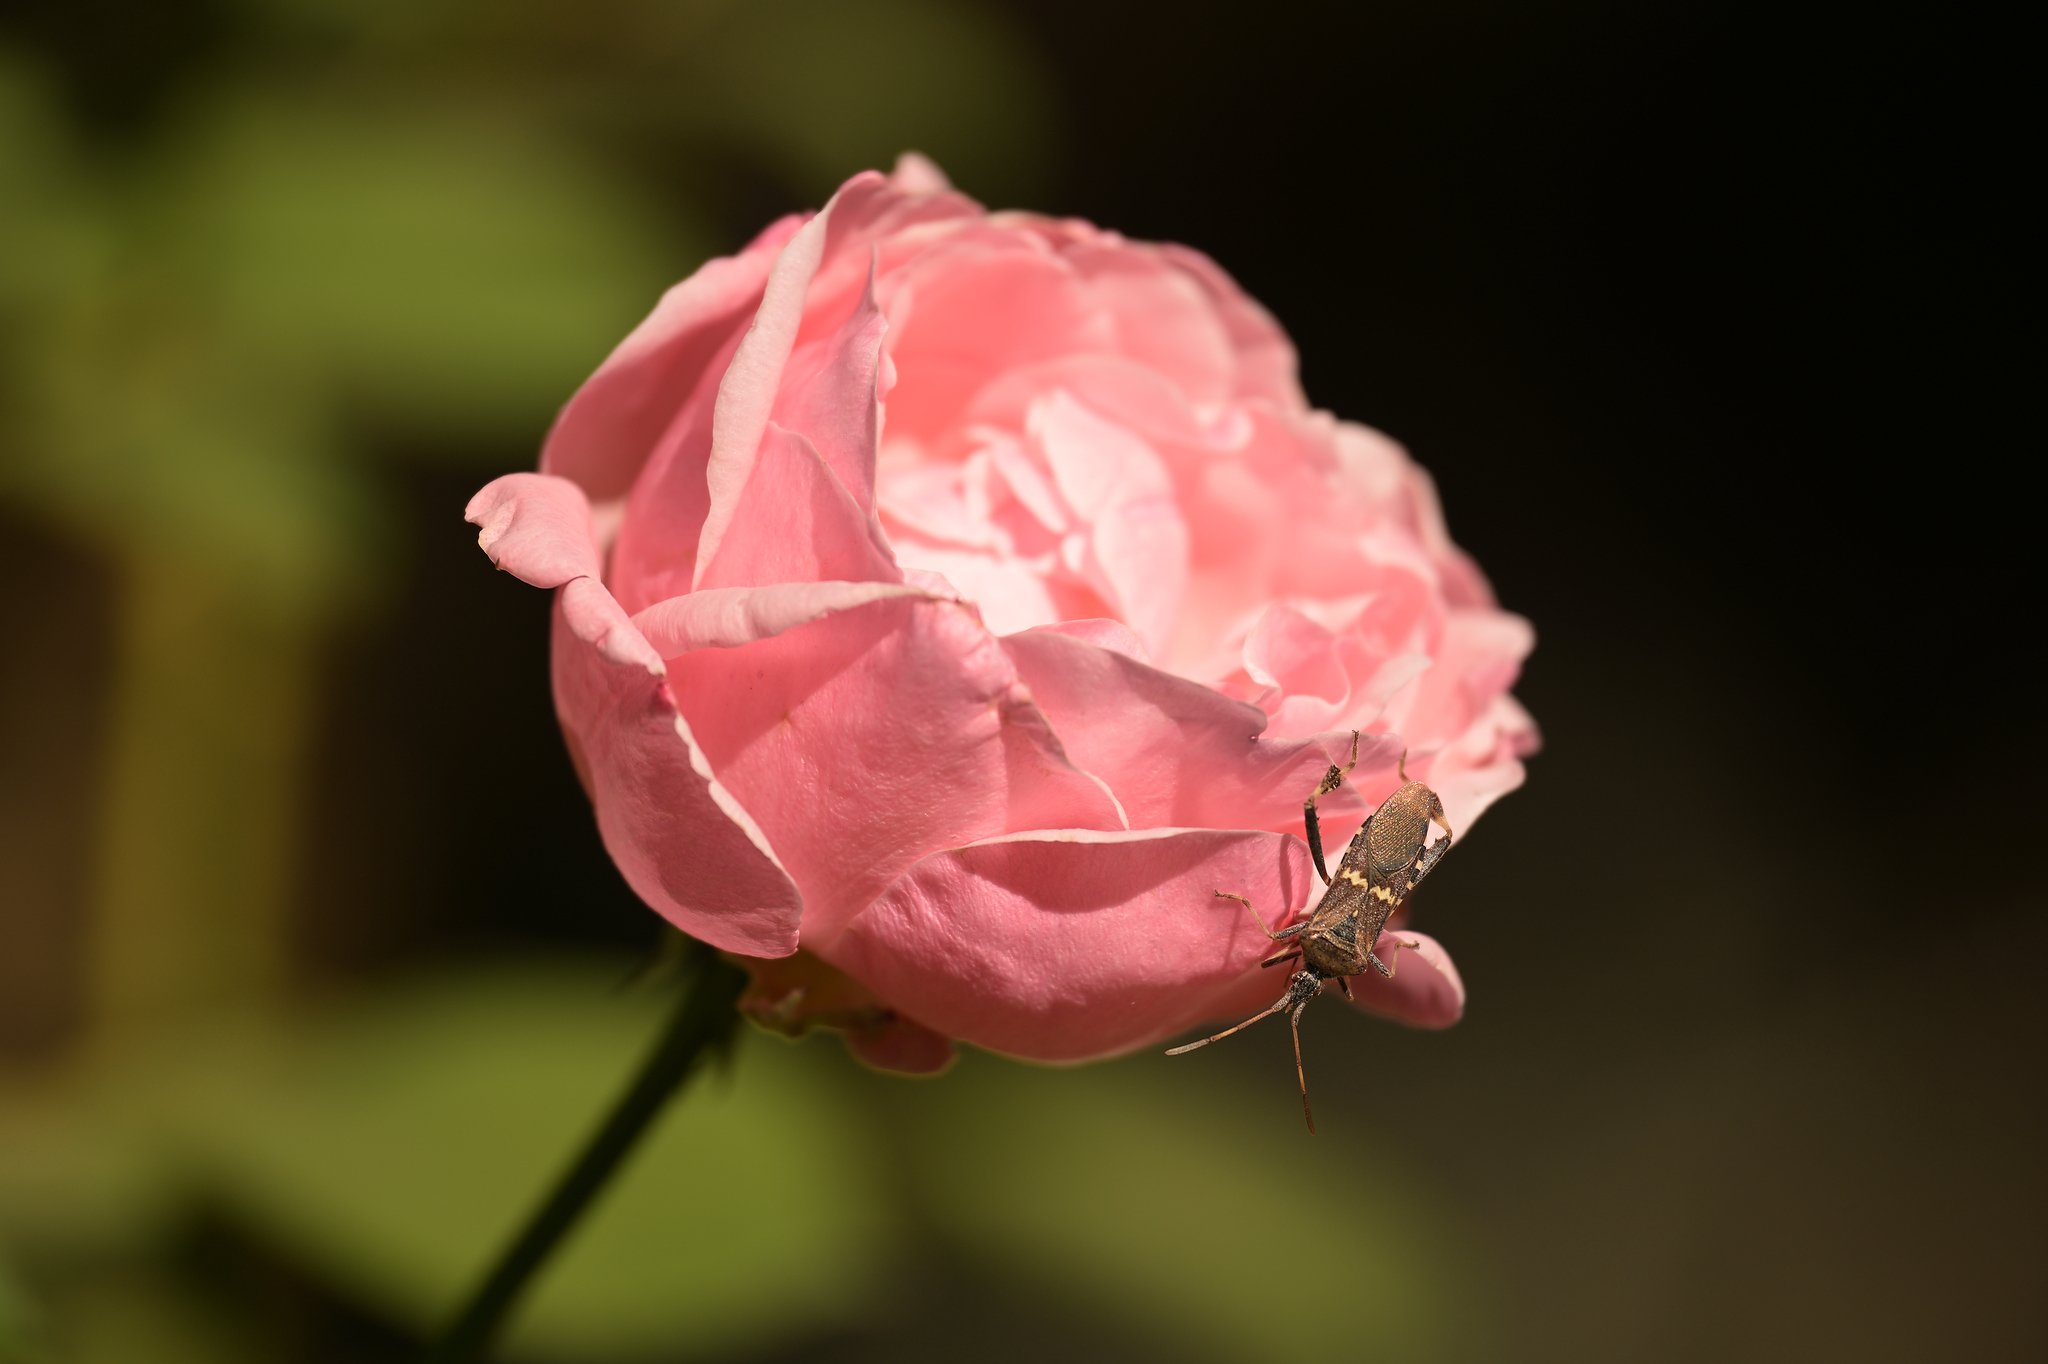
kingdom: Animalia
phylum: Arthropoda
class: Insecta
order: Hemiptera
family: Coreidae
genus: Leptoglossus
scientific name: Leptoglossus clypealis
